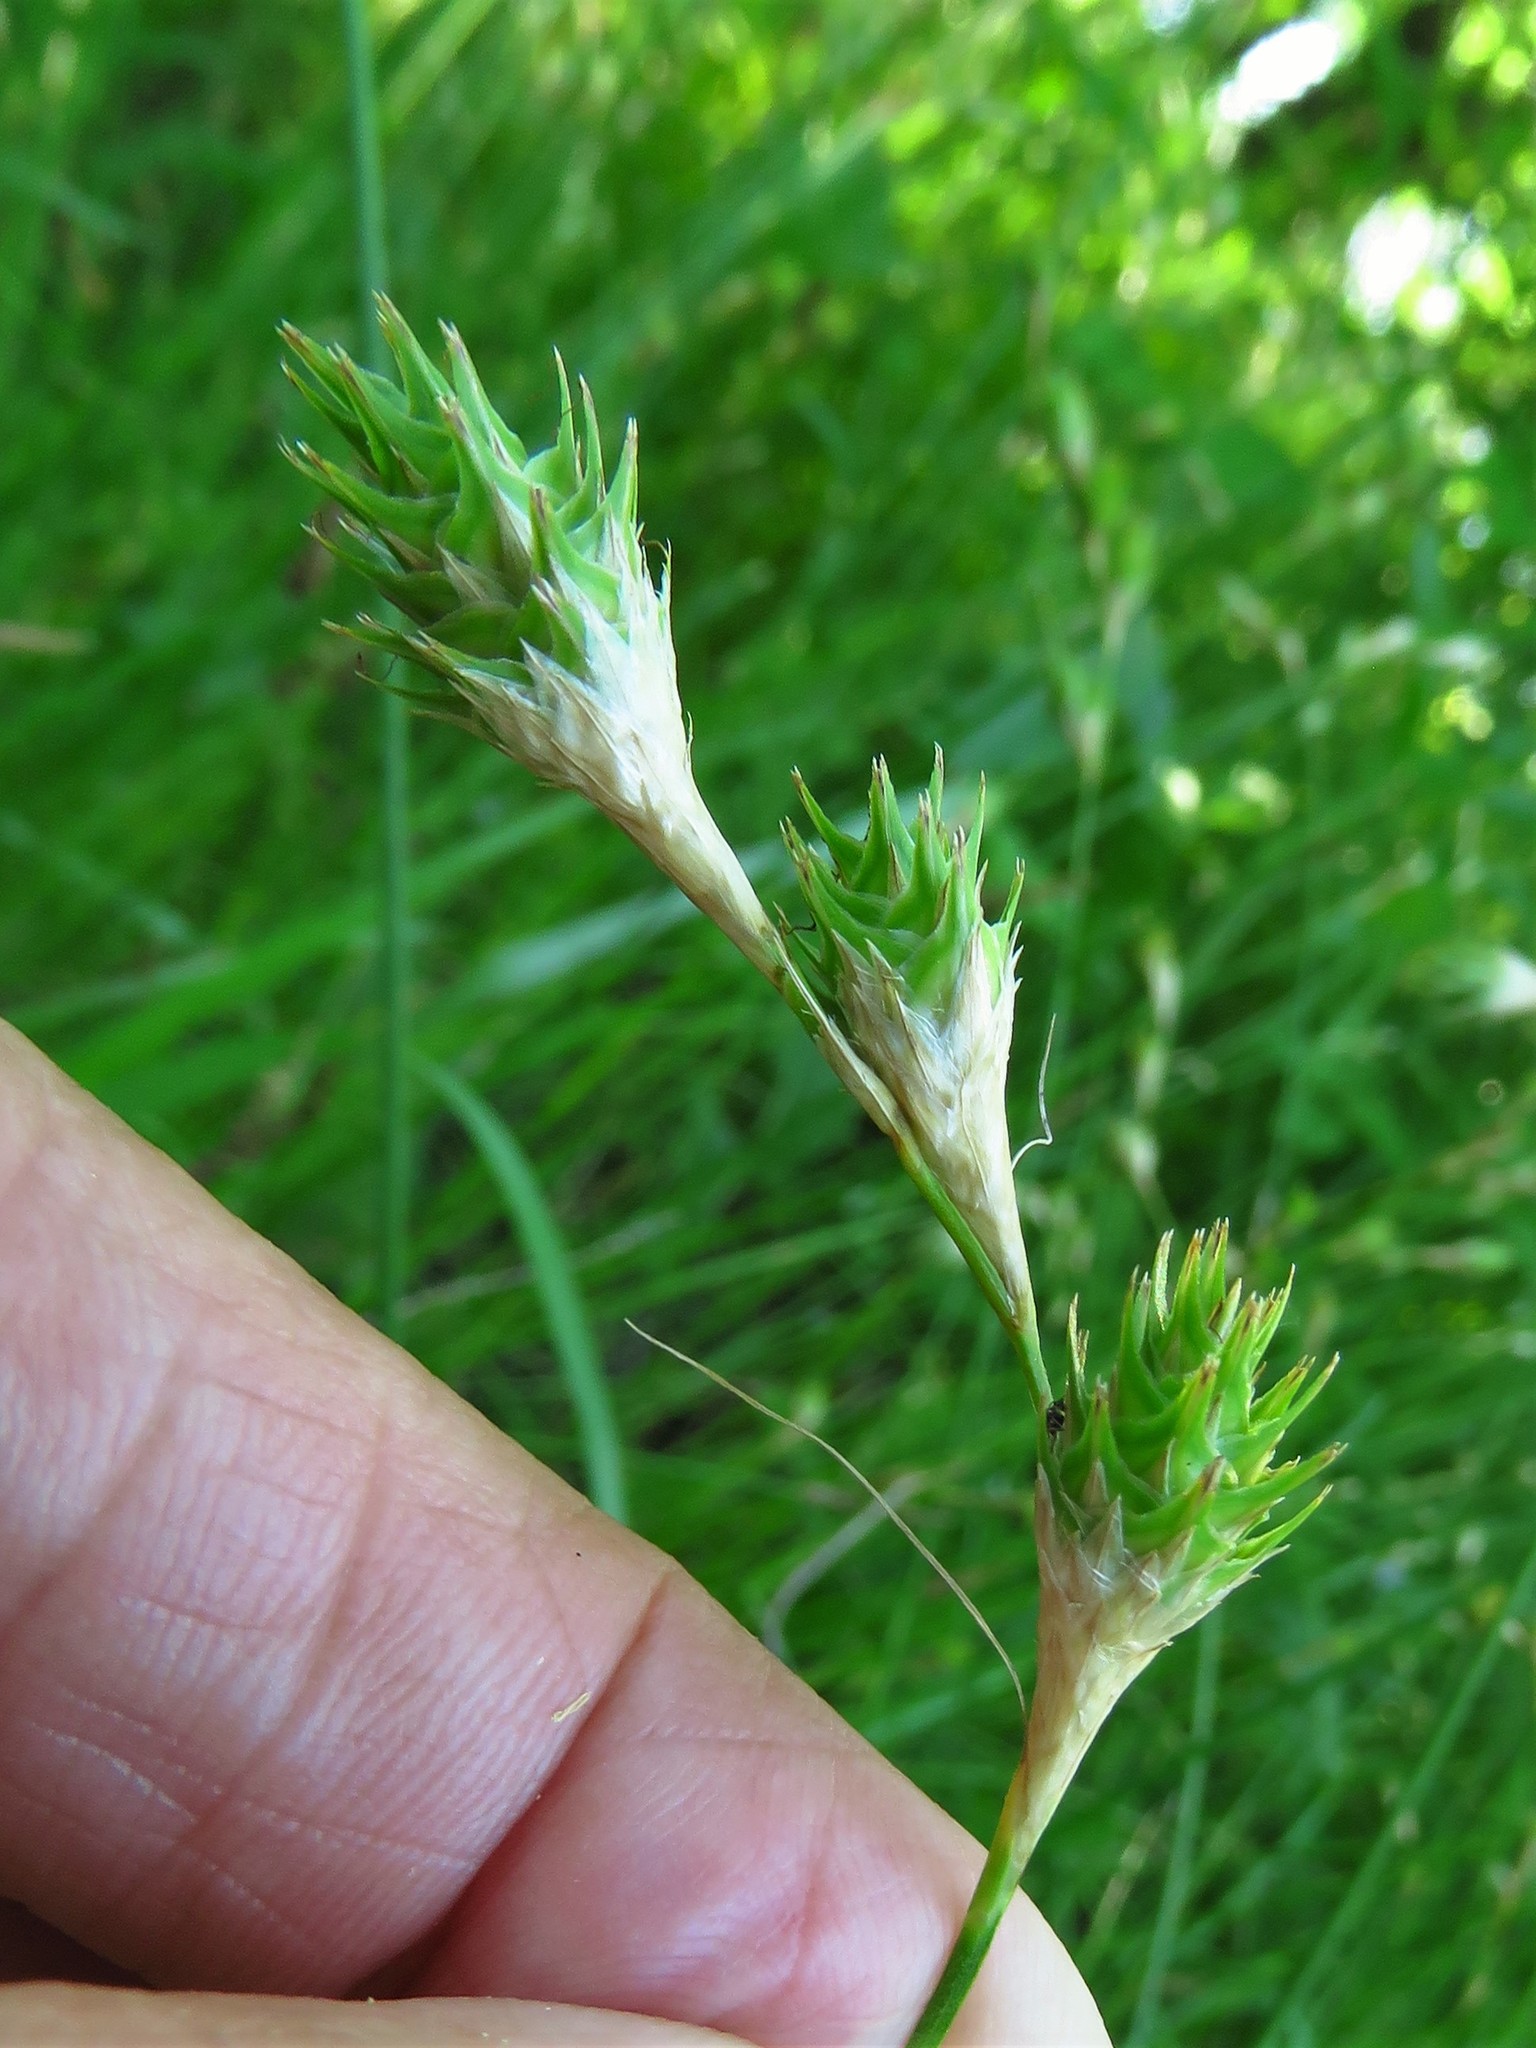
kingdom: Plantae
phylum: Tracheophyta
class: Liliopsida
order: Poales
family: Cyperaceae
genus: Carex
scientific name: Carex tetrastachya
